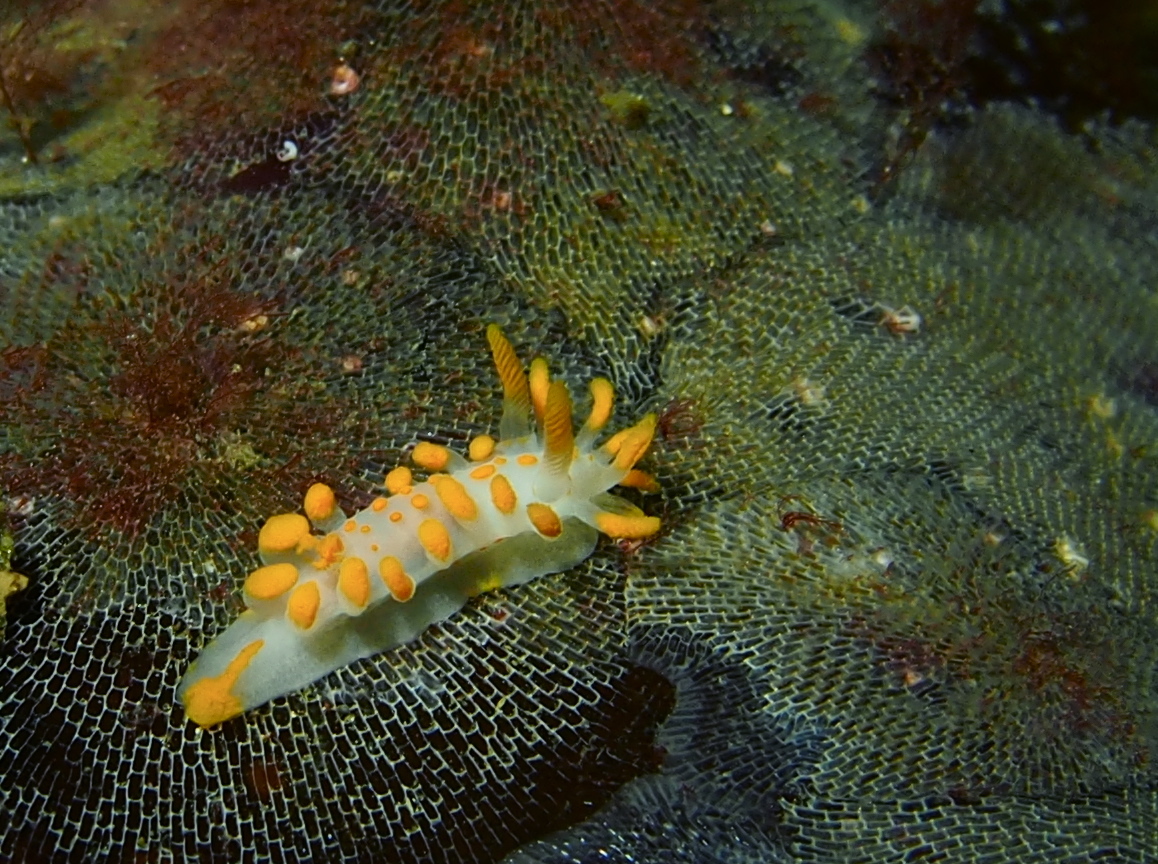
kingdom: Animalia
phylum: Mollusca
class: Gastropoda
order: Nudibranchia
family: Polyceridae
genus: Limacia
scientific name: Limacia clavigera
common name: Orange-clubbed sea slug
